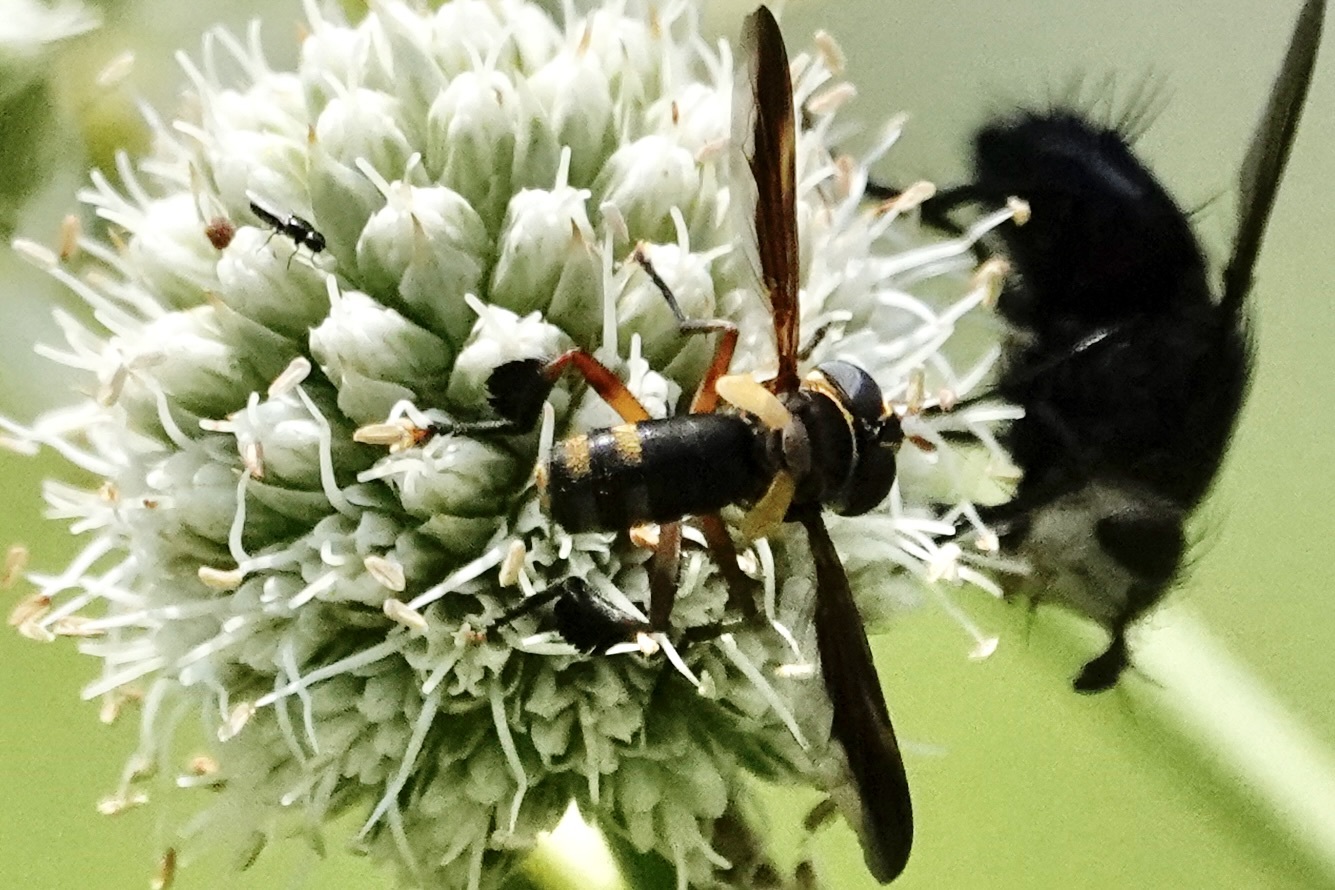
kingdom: Animalia
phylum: Arthropoda
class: Insecta
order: Diptera
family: Tachinidae
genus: Trichopoda
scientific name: Trichopoda plumipes
